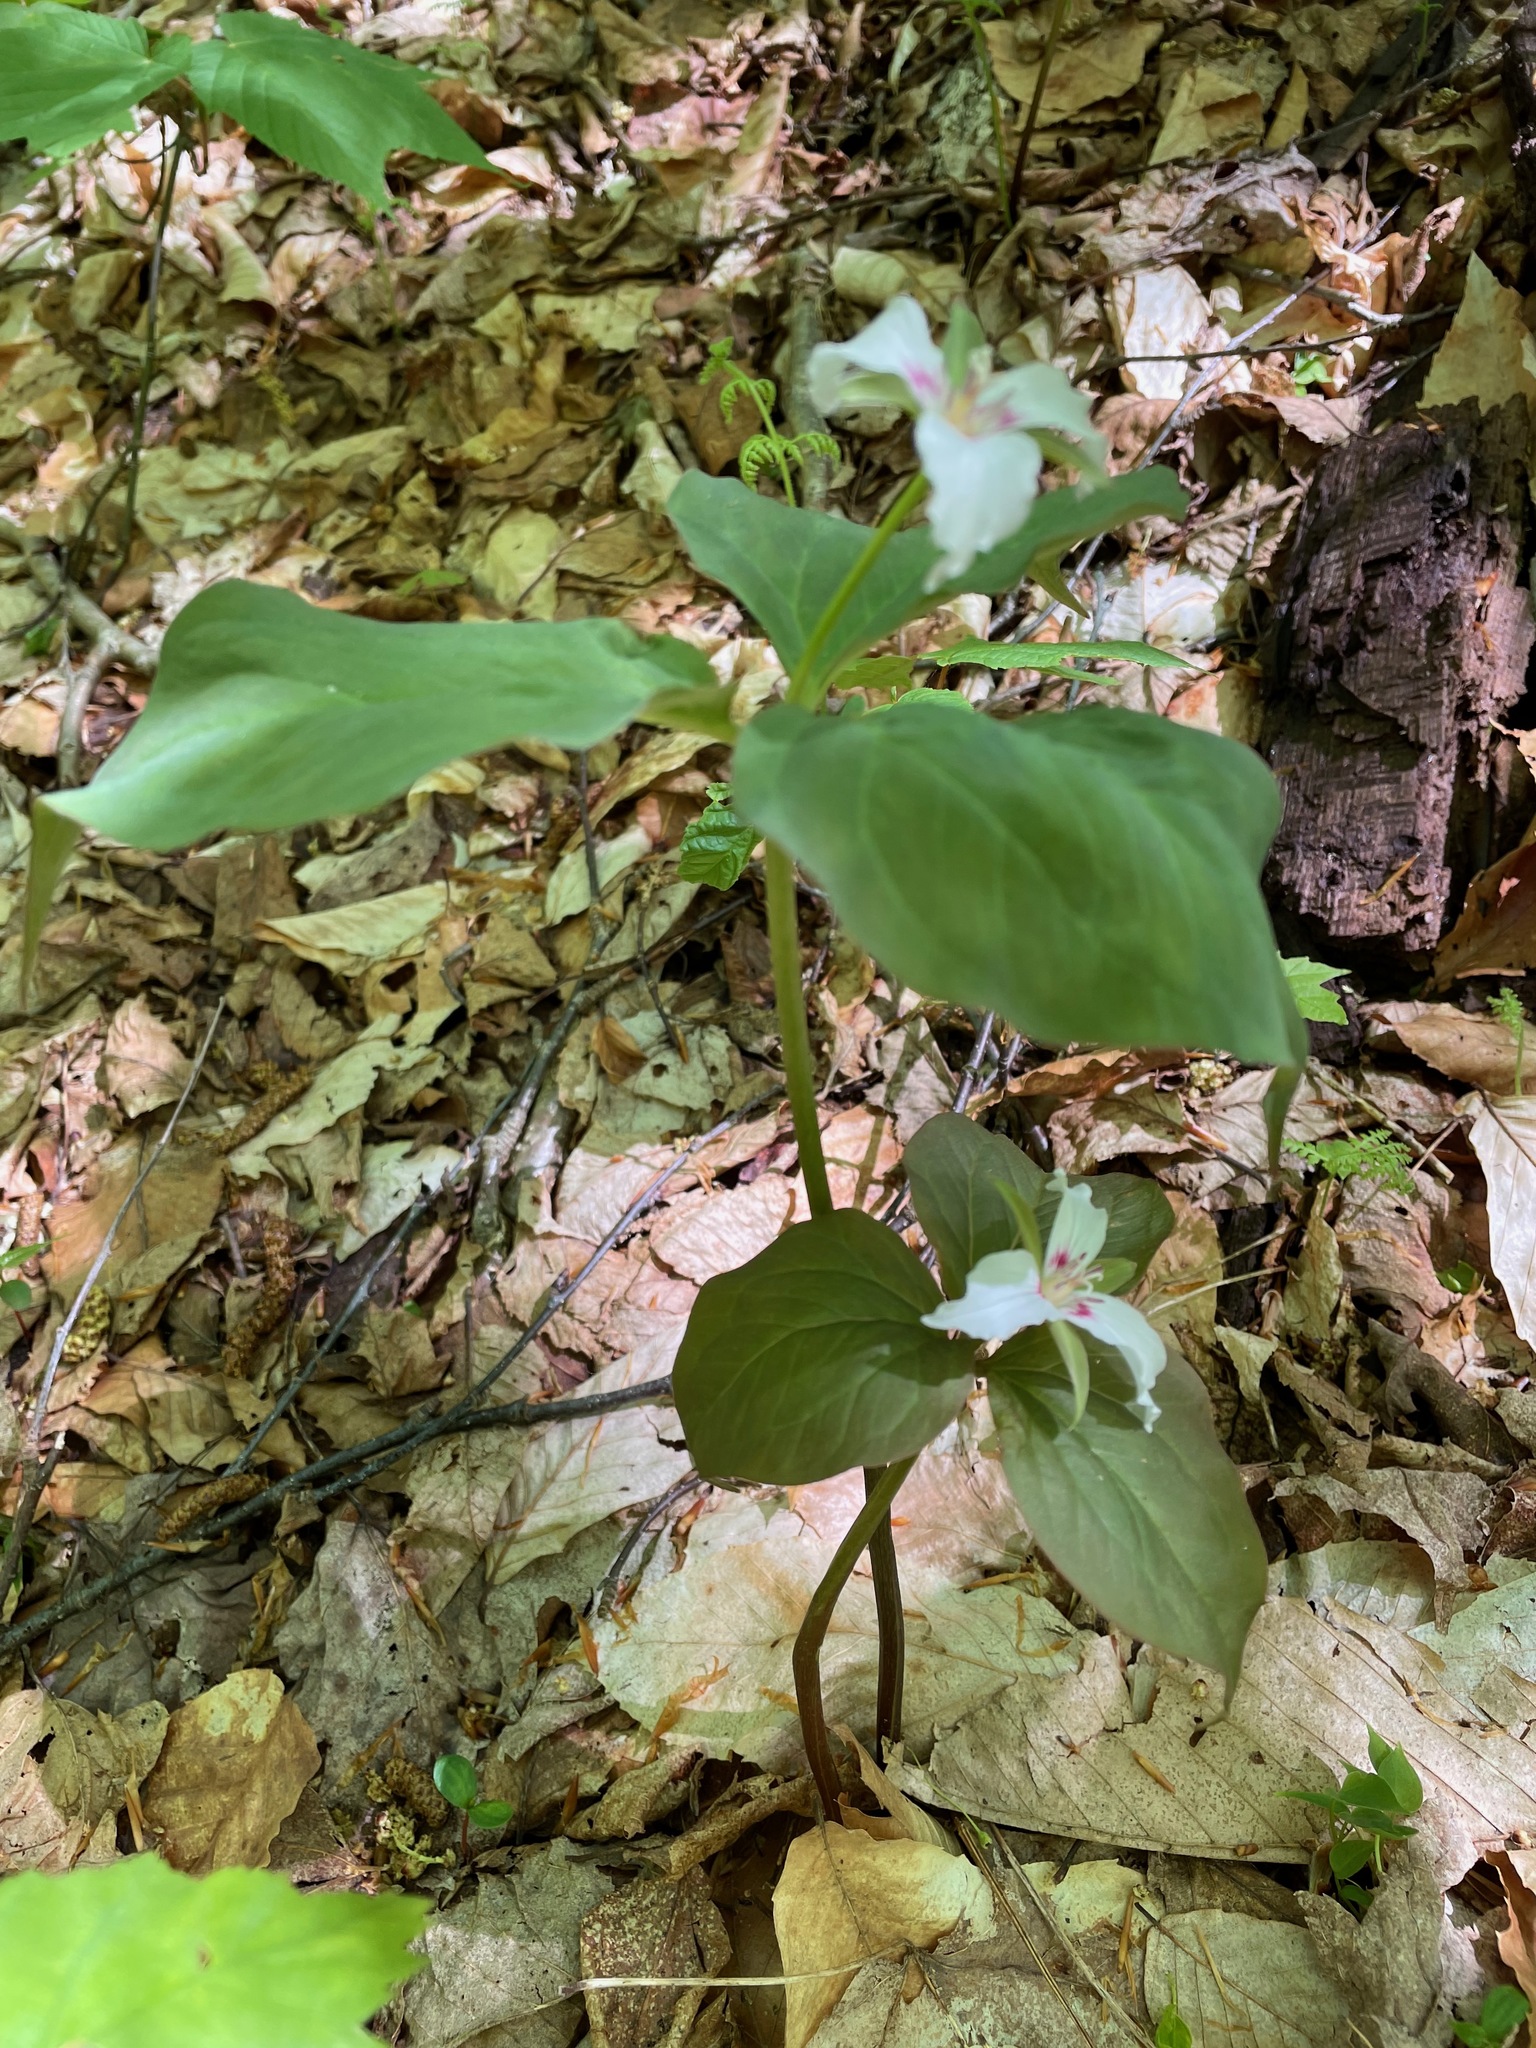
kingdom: Plantae
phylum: Tracheophyta
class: Liliopsida
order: Liliales
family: Melanthiaceae
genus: Trillium
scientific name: Trillium undulatum
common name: Paint trillium
